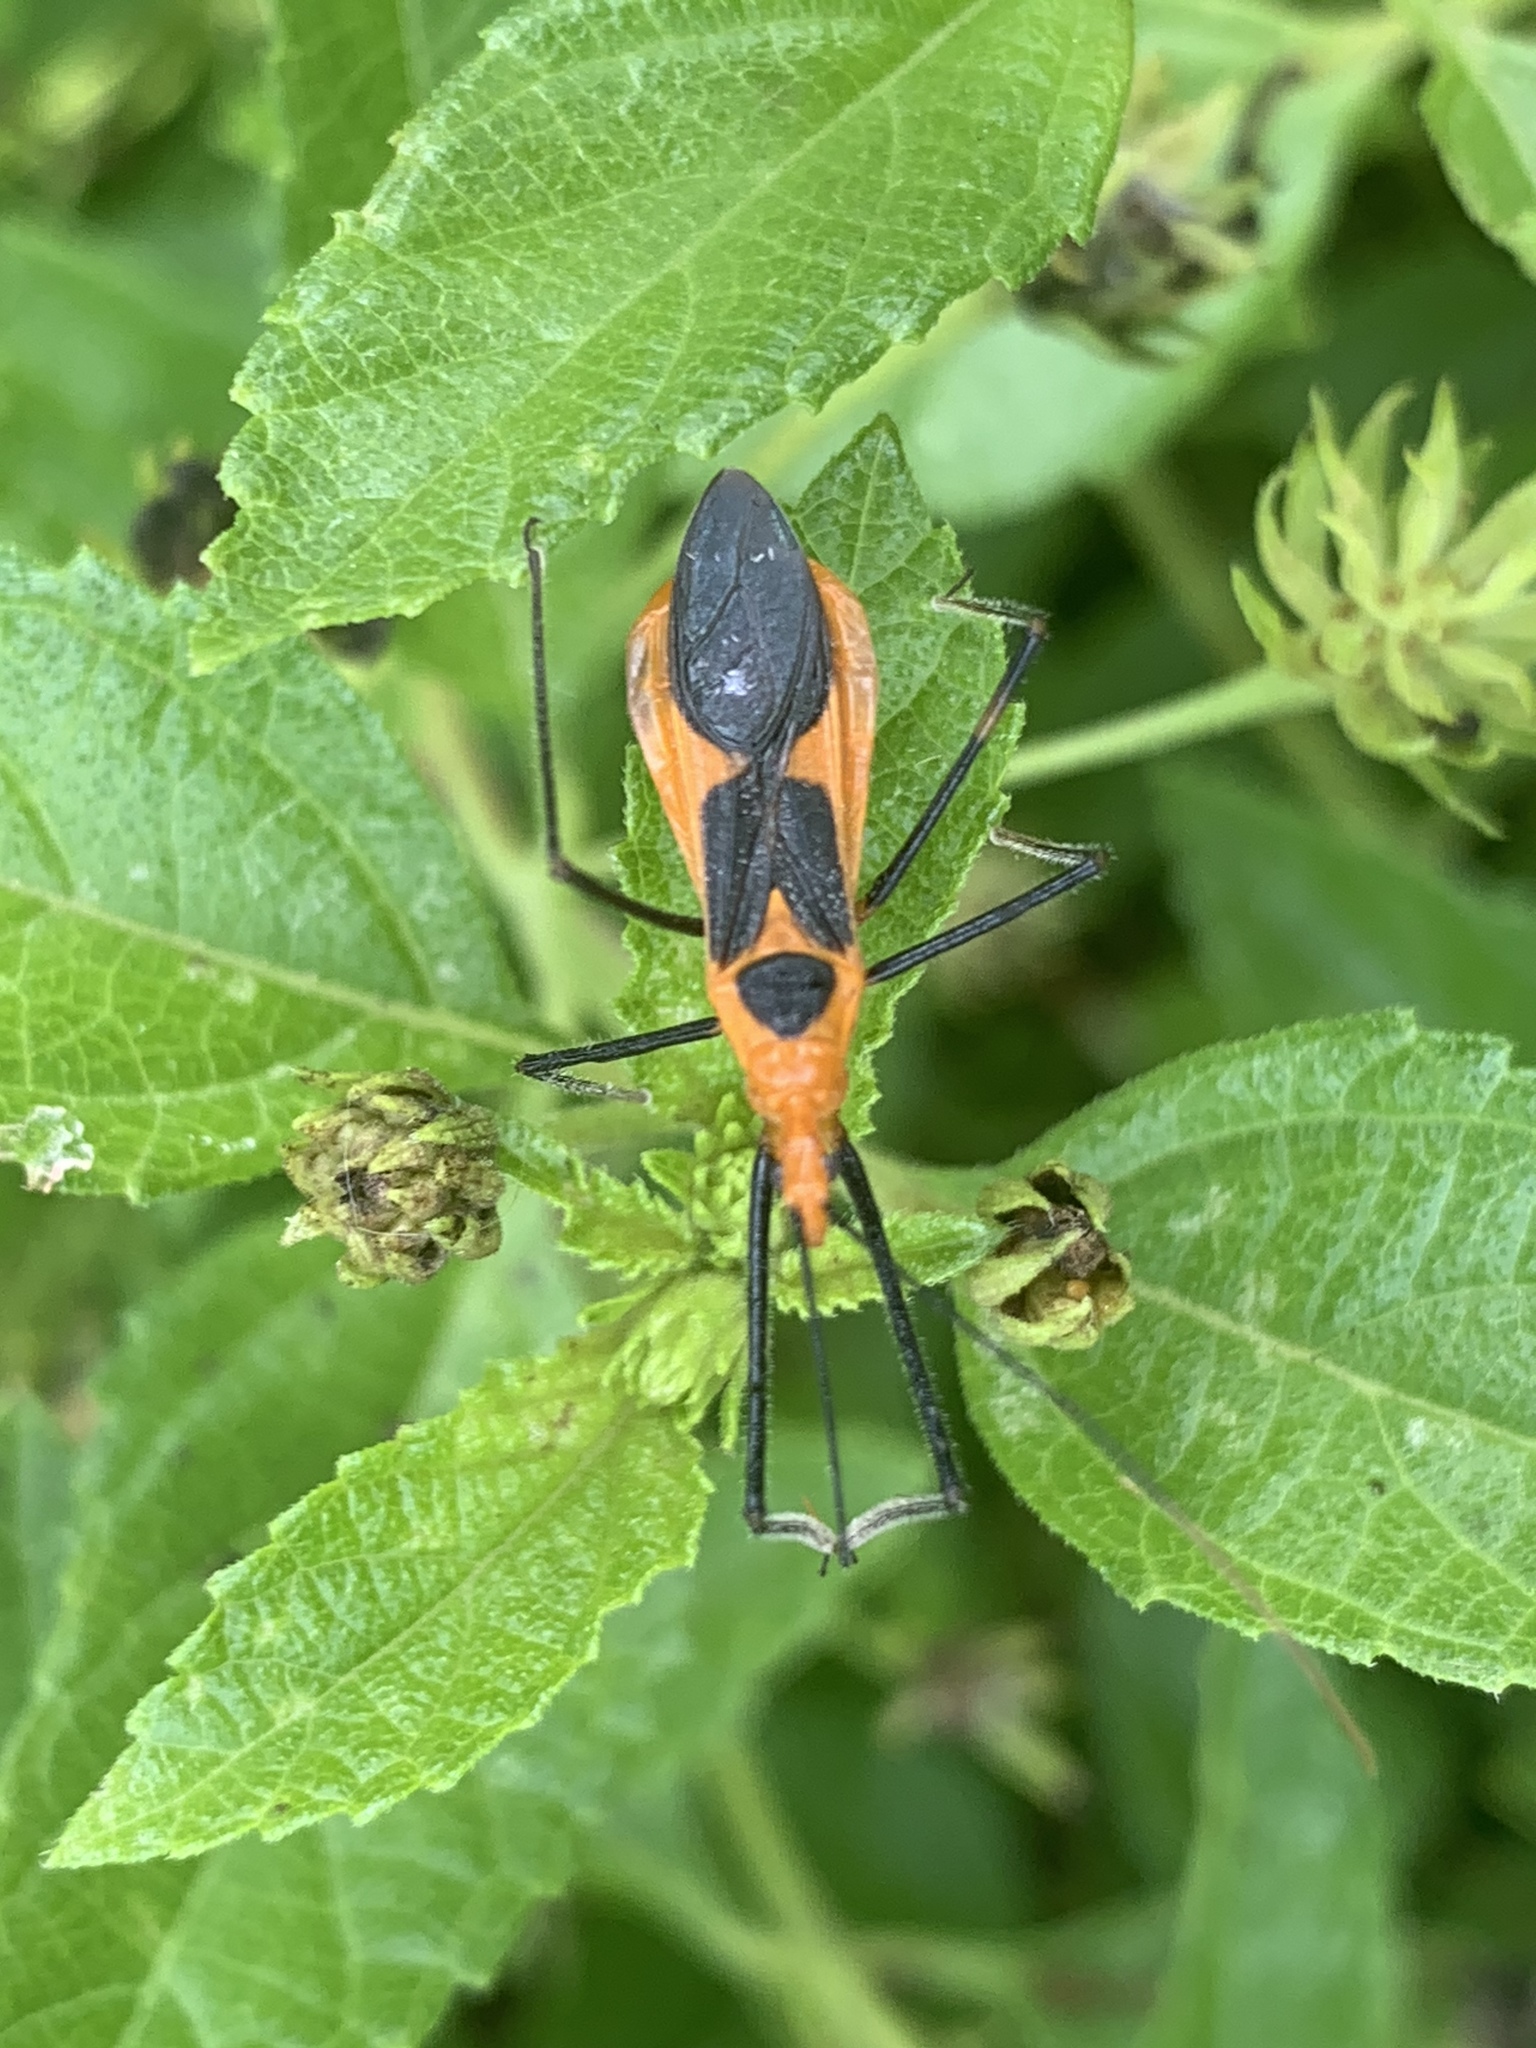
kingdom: Animalia
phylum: Arthropoda
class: Insecta
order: Hemiptera
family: Reduviidae
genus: Zelus
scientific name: Zelus longipes
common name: Milkweed assassin bug
